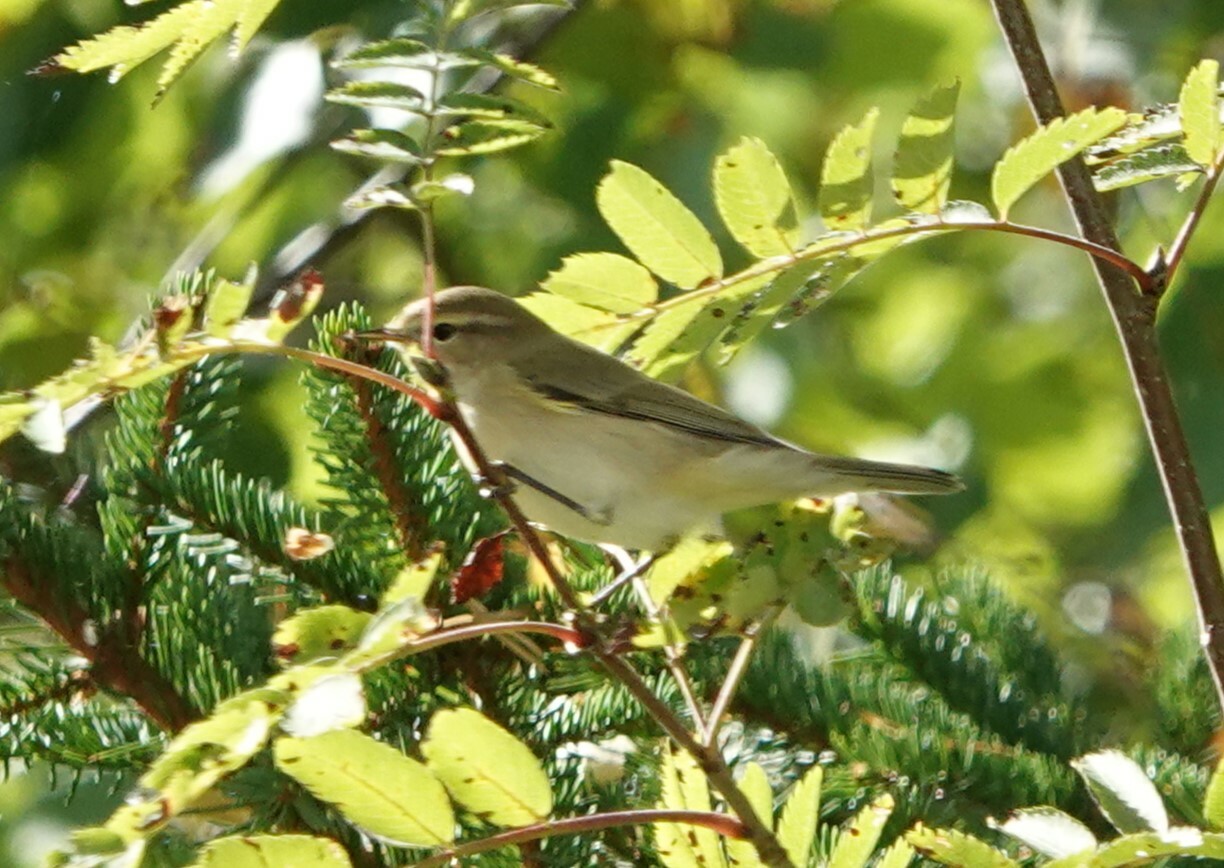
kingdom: Animalia
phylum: Chordata
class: Aves
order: Passeriformes
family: Phylloscopidae
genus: Phylloscopus
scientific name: Phylloscopus collybita
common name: Common chiffchaff
